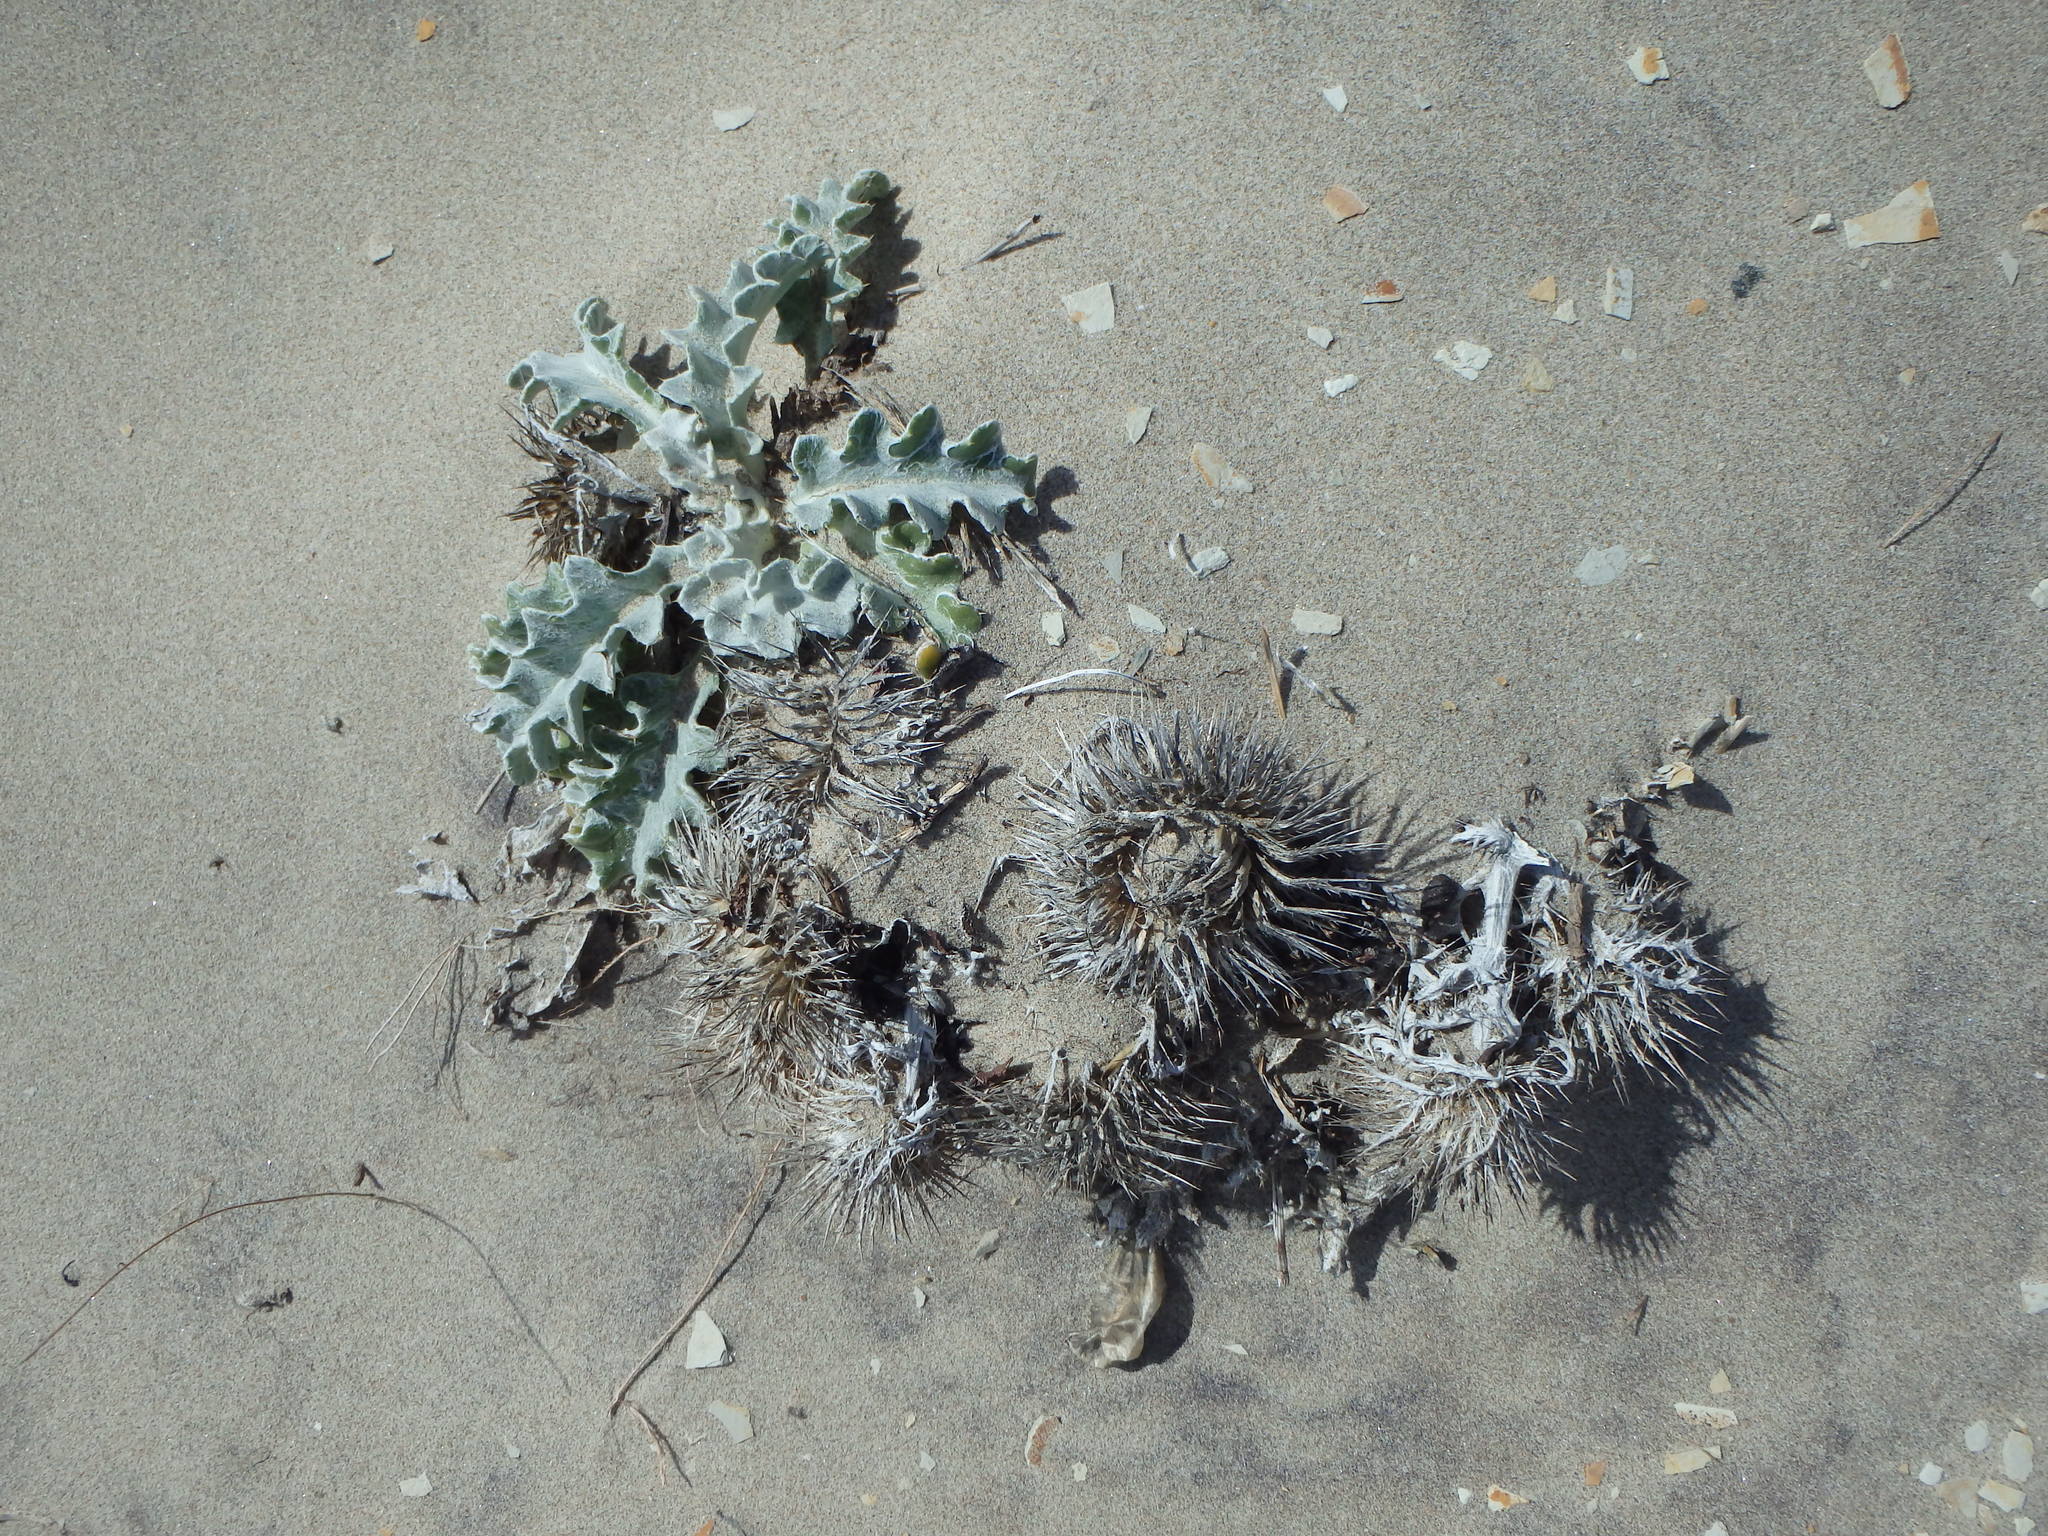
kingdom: Plantae
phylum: Tracheophyta
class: Magnoliopsida
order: Asterales
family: Asteraceae
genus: Cirsium
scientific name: Cirsium rhothophilum
